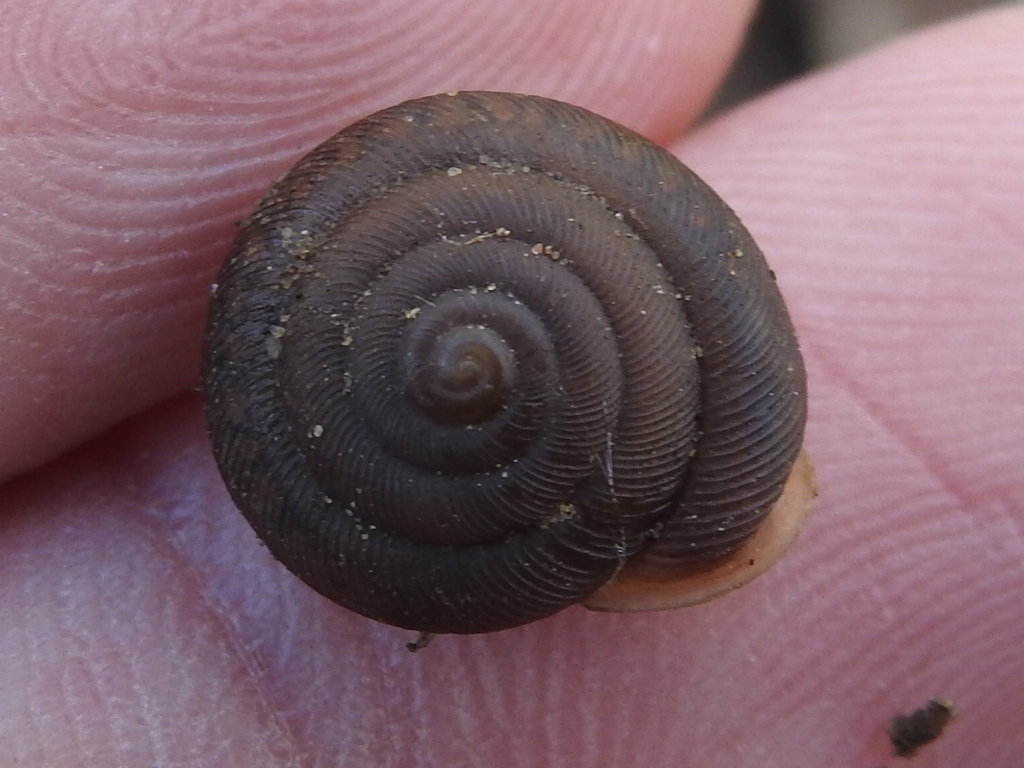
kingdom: Animalia
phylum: Mollusca
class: Gastropoda
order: Stylommatophora
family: Polygyridae
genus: Triodopsis
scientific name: Triodopsis hopetonensis
